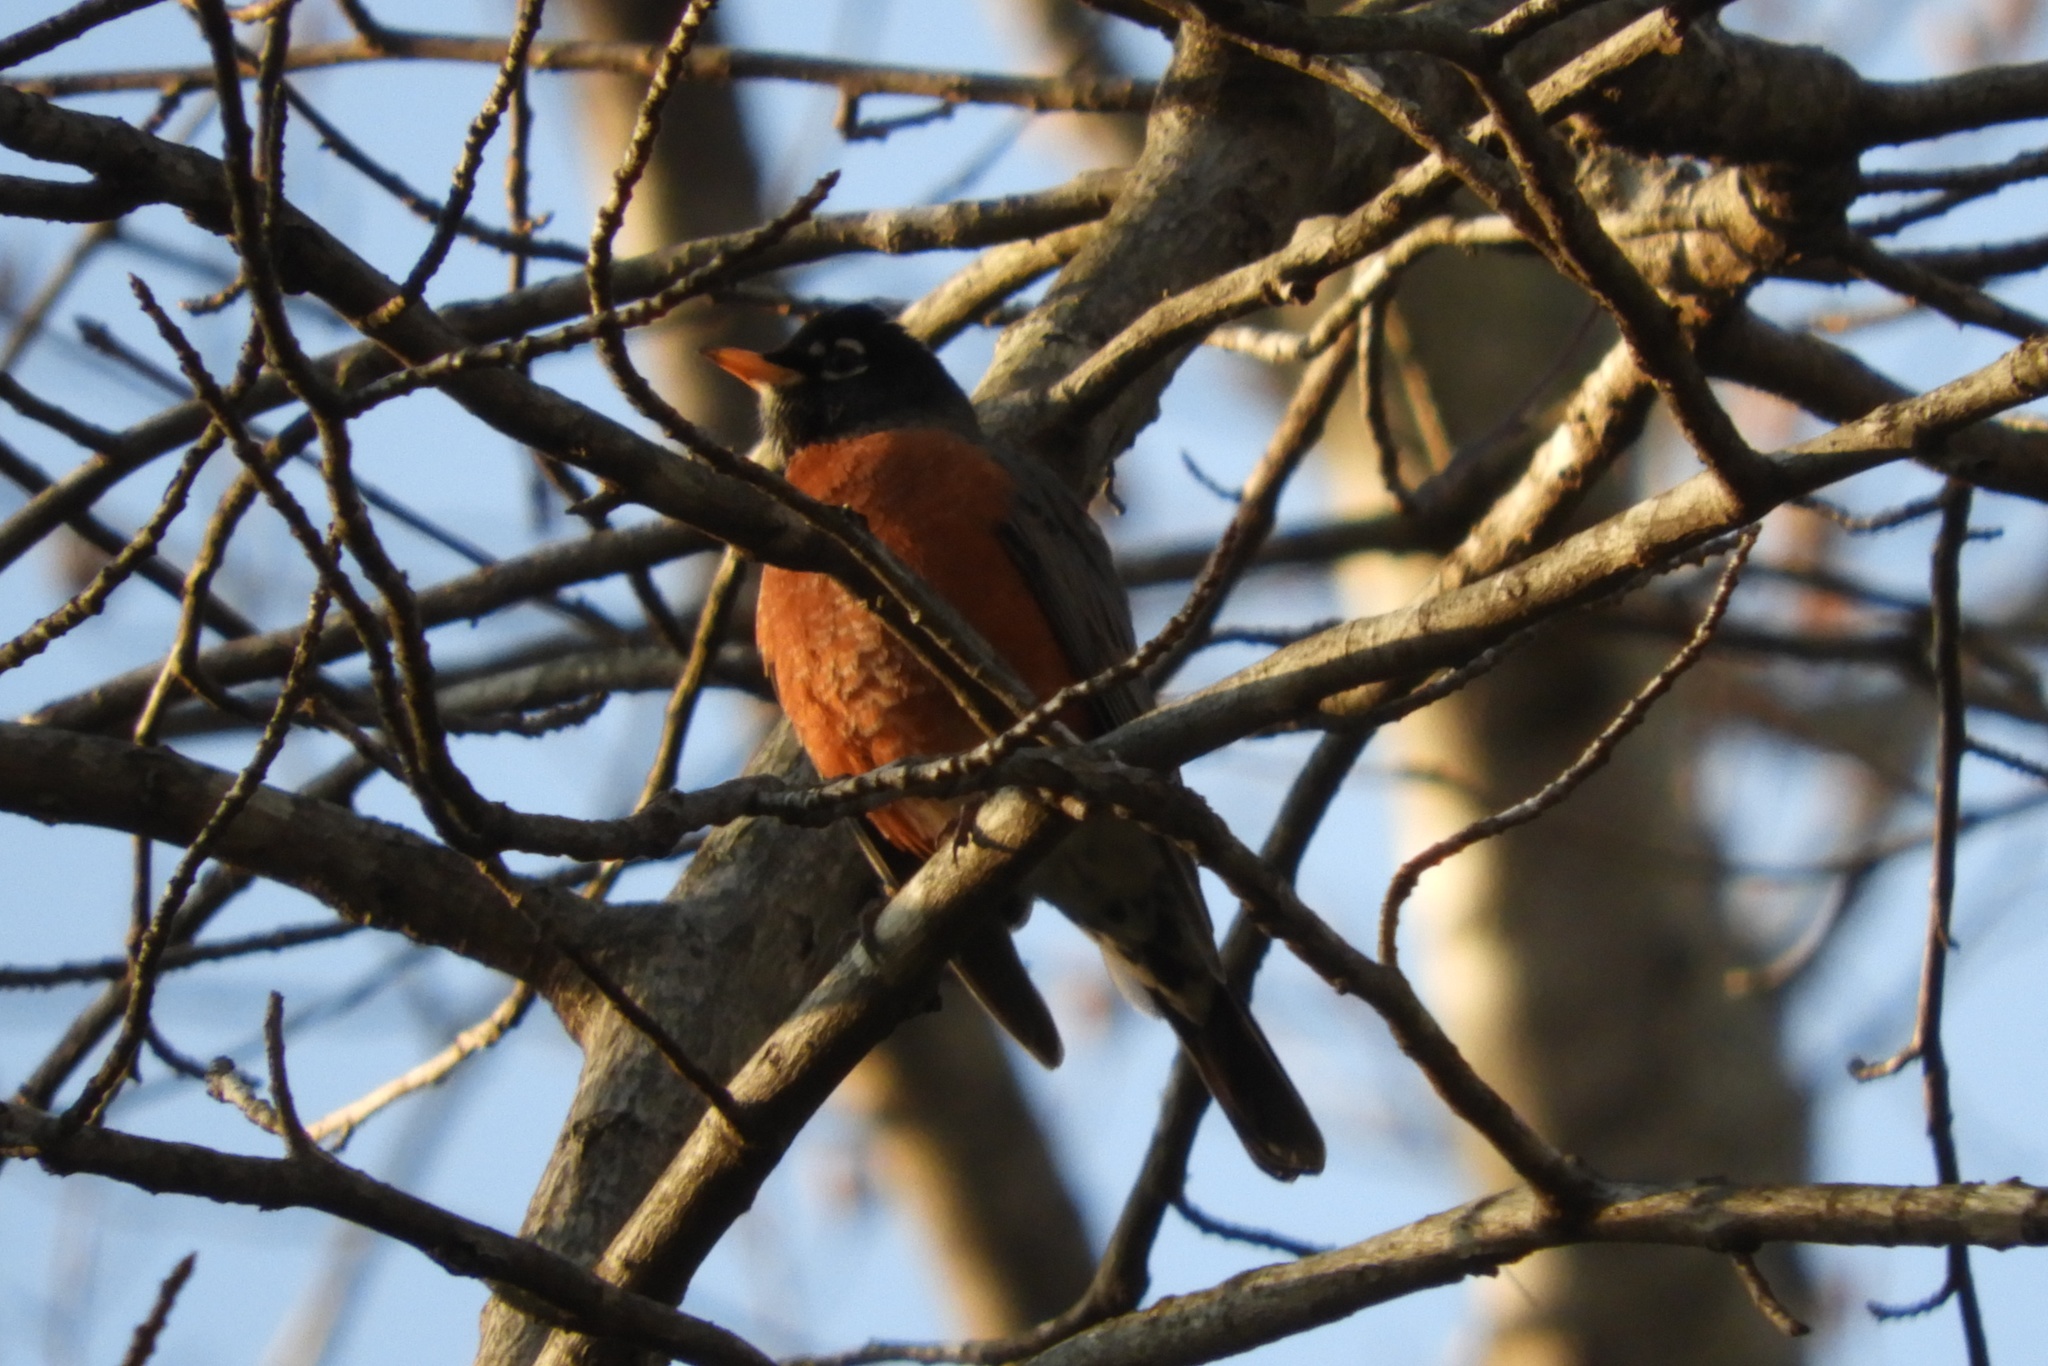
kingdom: Animalia
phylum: Chordata
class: Aves
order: Passeriformes
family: Turdidae
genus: Turdus
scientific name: Turdus migratorius
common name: American robin
